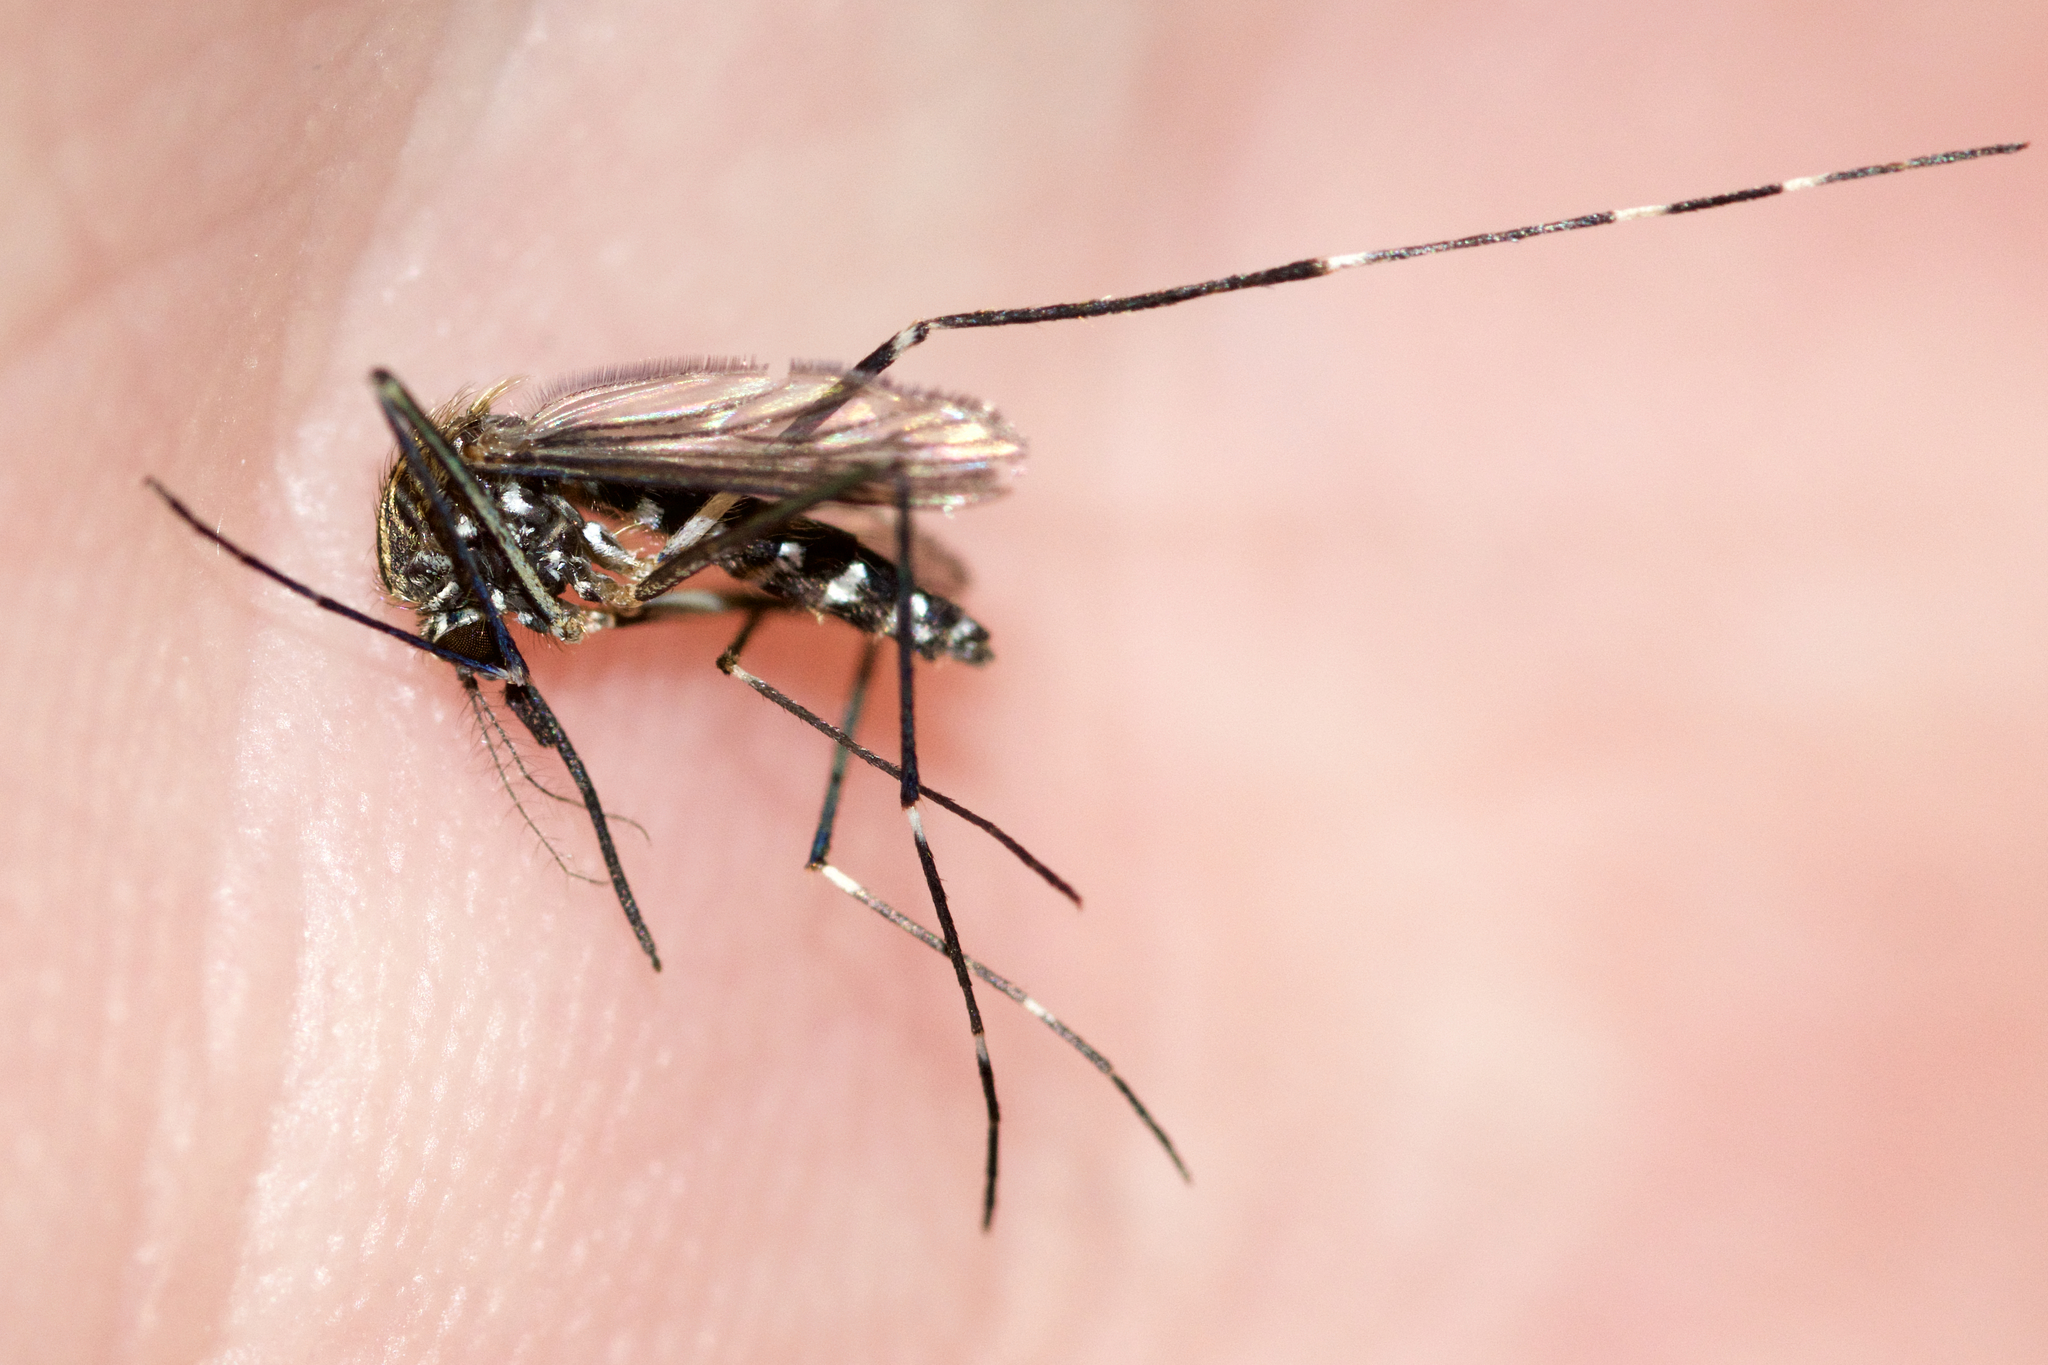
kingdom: Animalia
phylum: Arthropoda
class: Insecta
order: Diptera
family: Culicidae
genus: Aedes
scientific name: Aedes japonicus
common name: Asian bush mosquito
